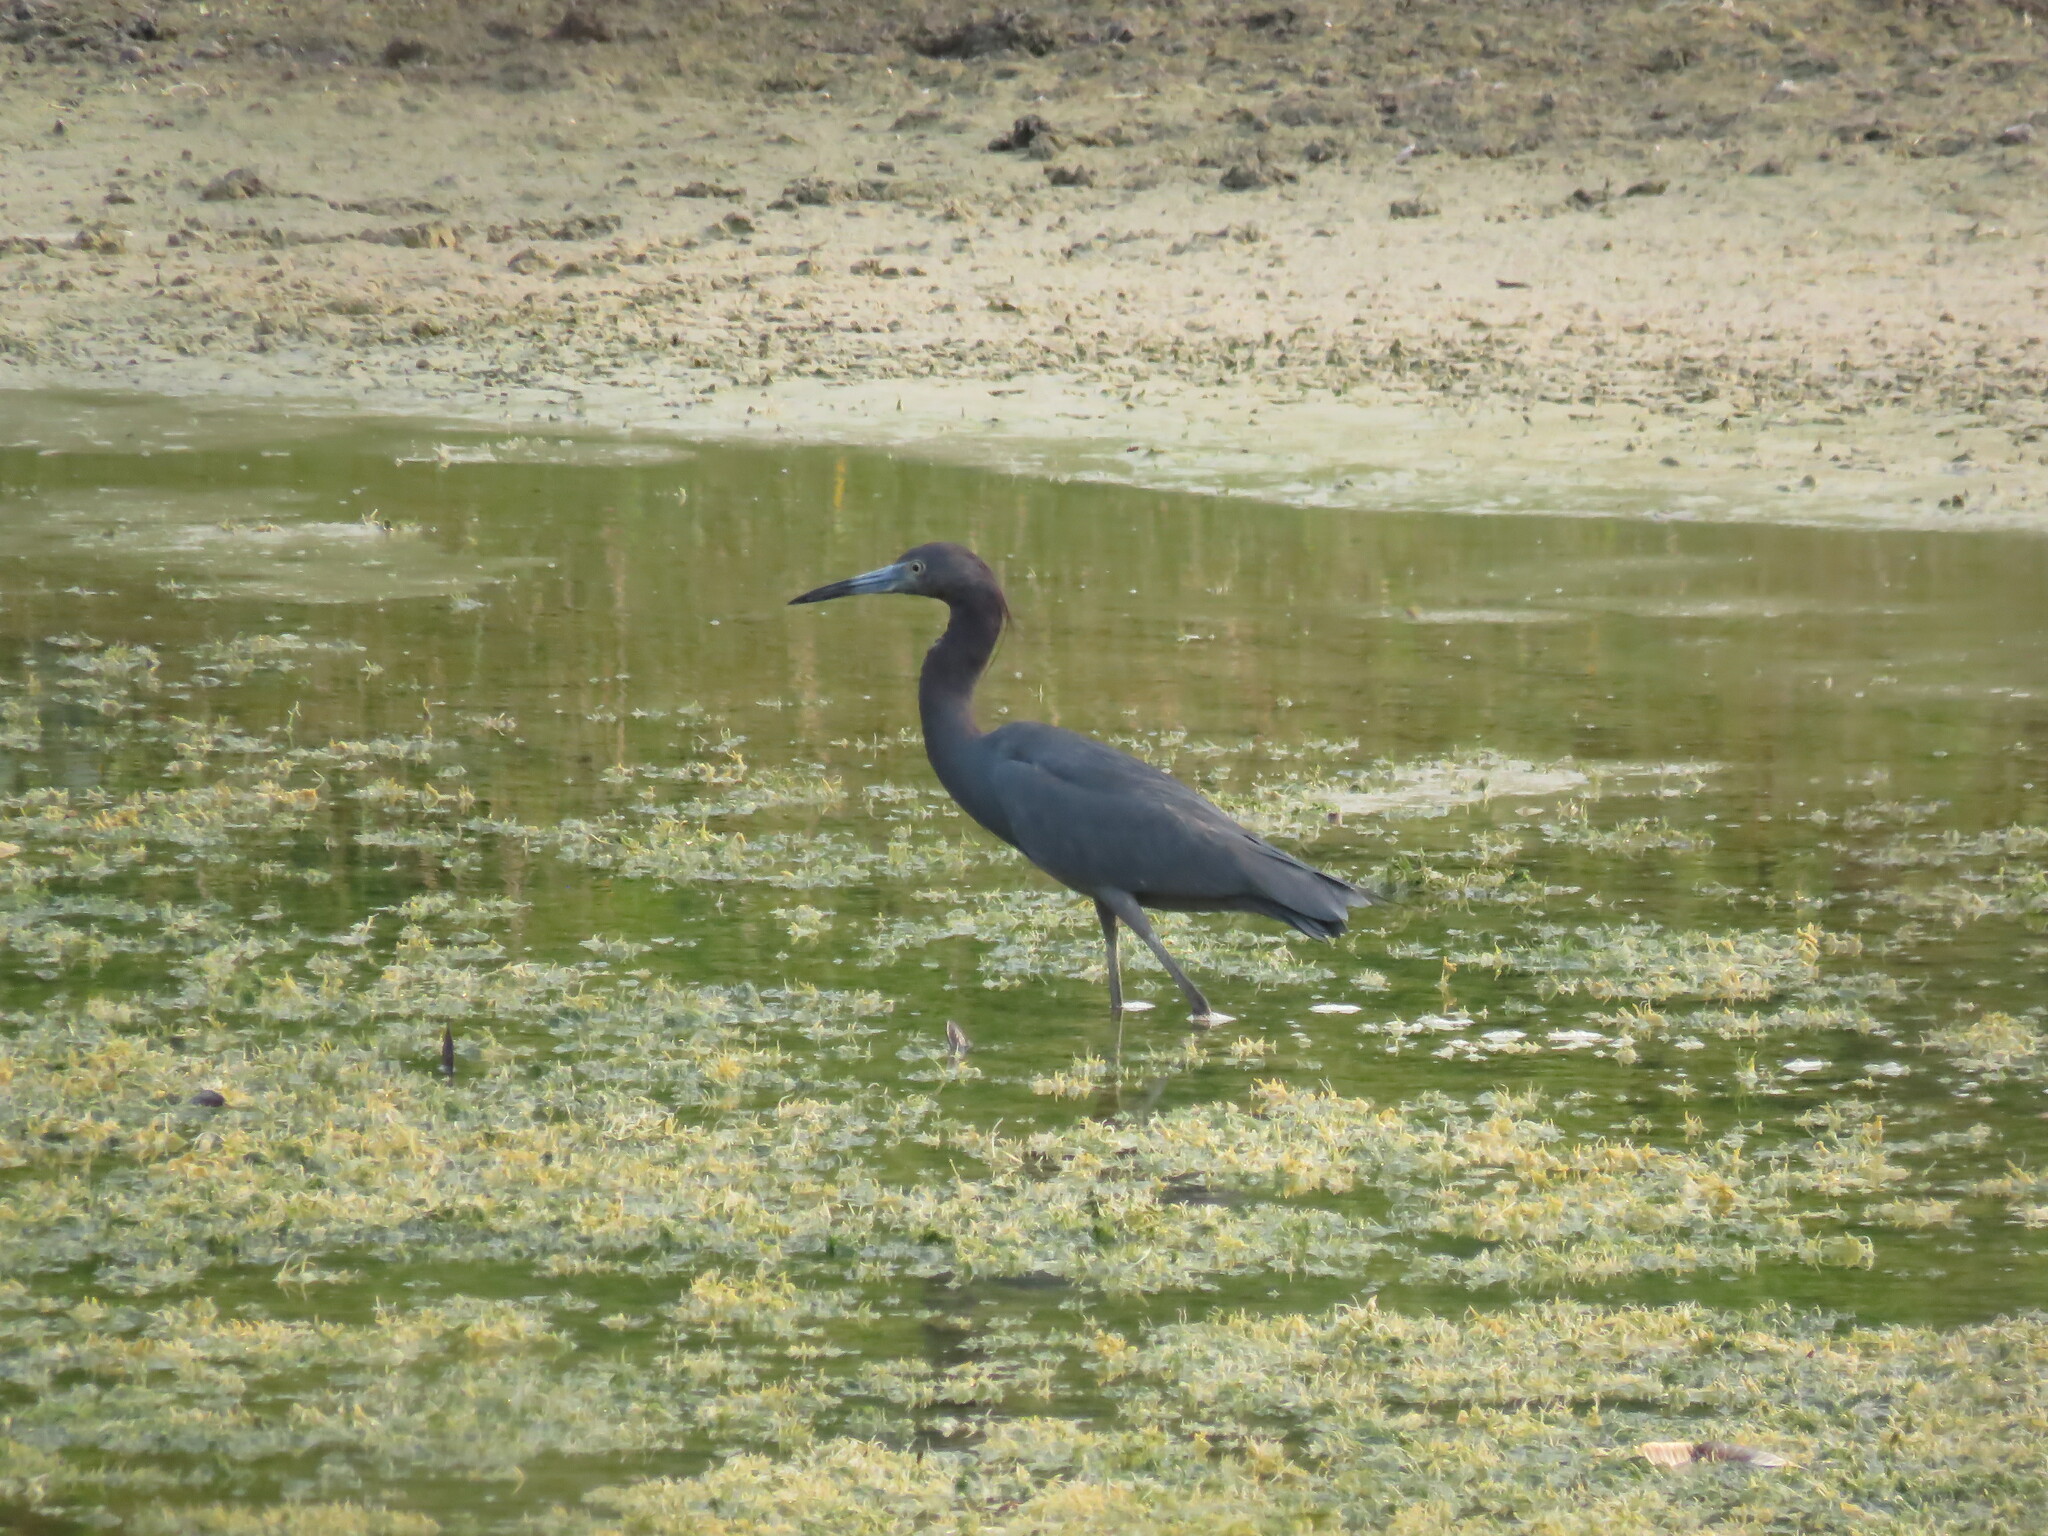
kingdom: Animalia
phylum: Chordata
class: Aves
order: Pelecaniformes
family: Ardeidae
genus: Egretta
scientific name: Egretta caerulea
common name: Little blue heron
